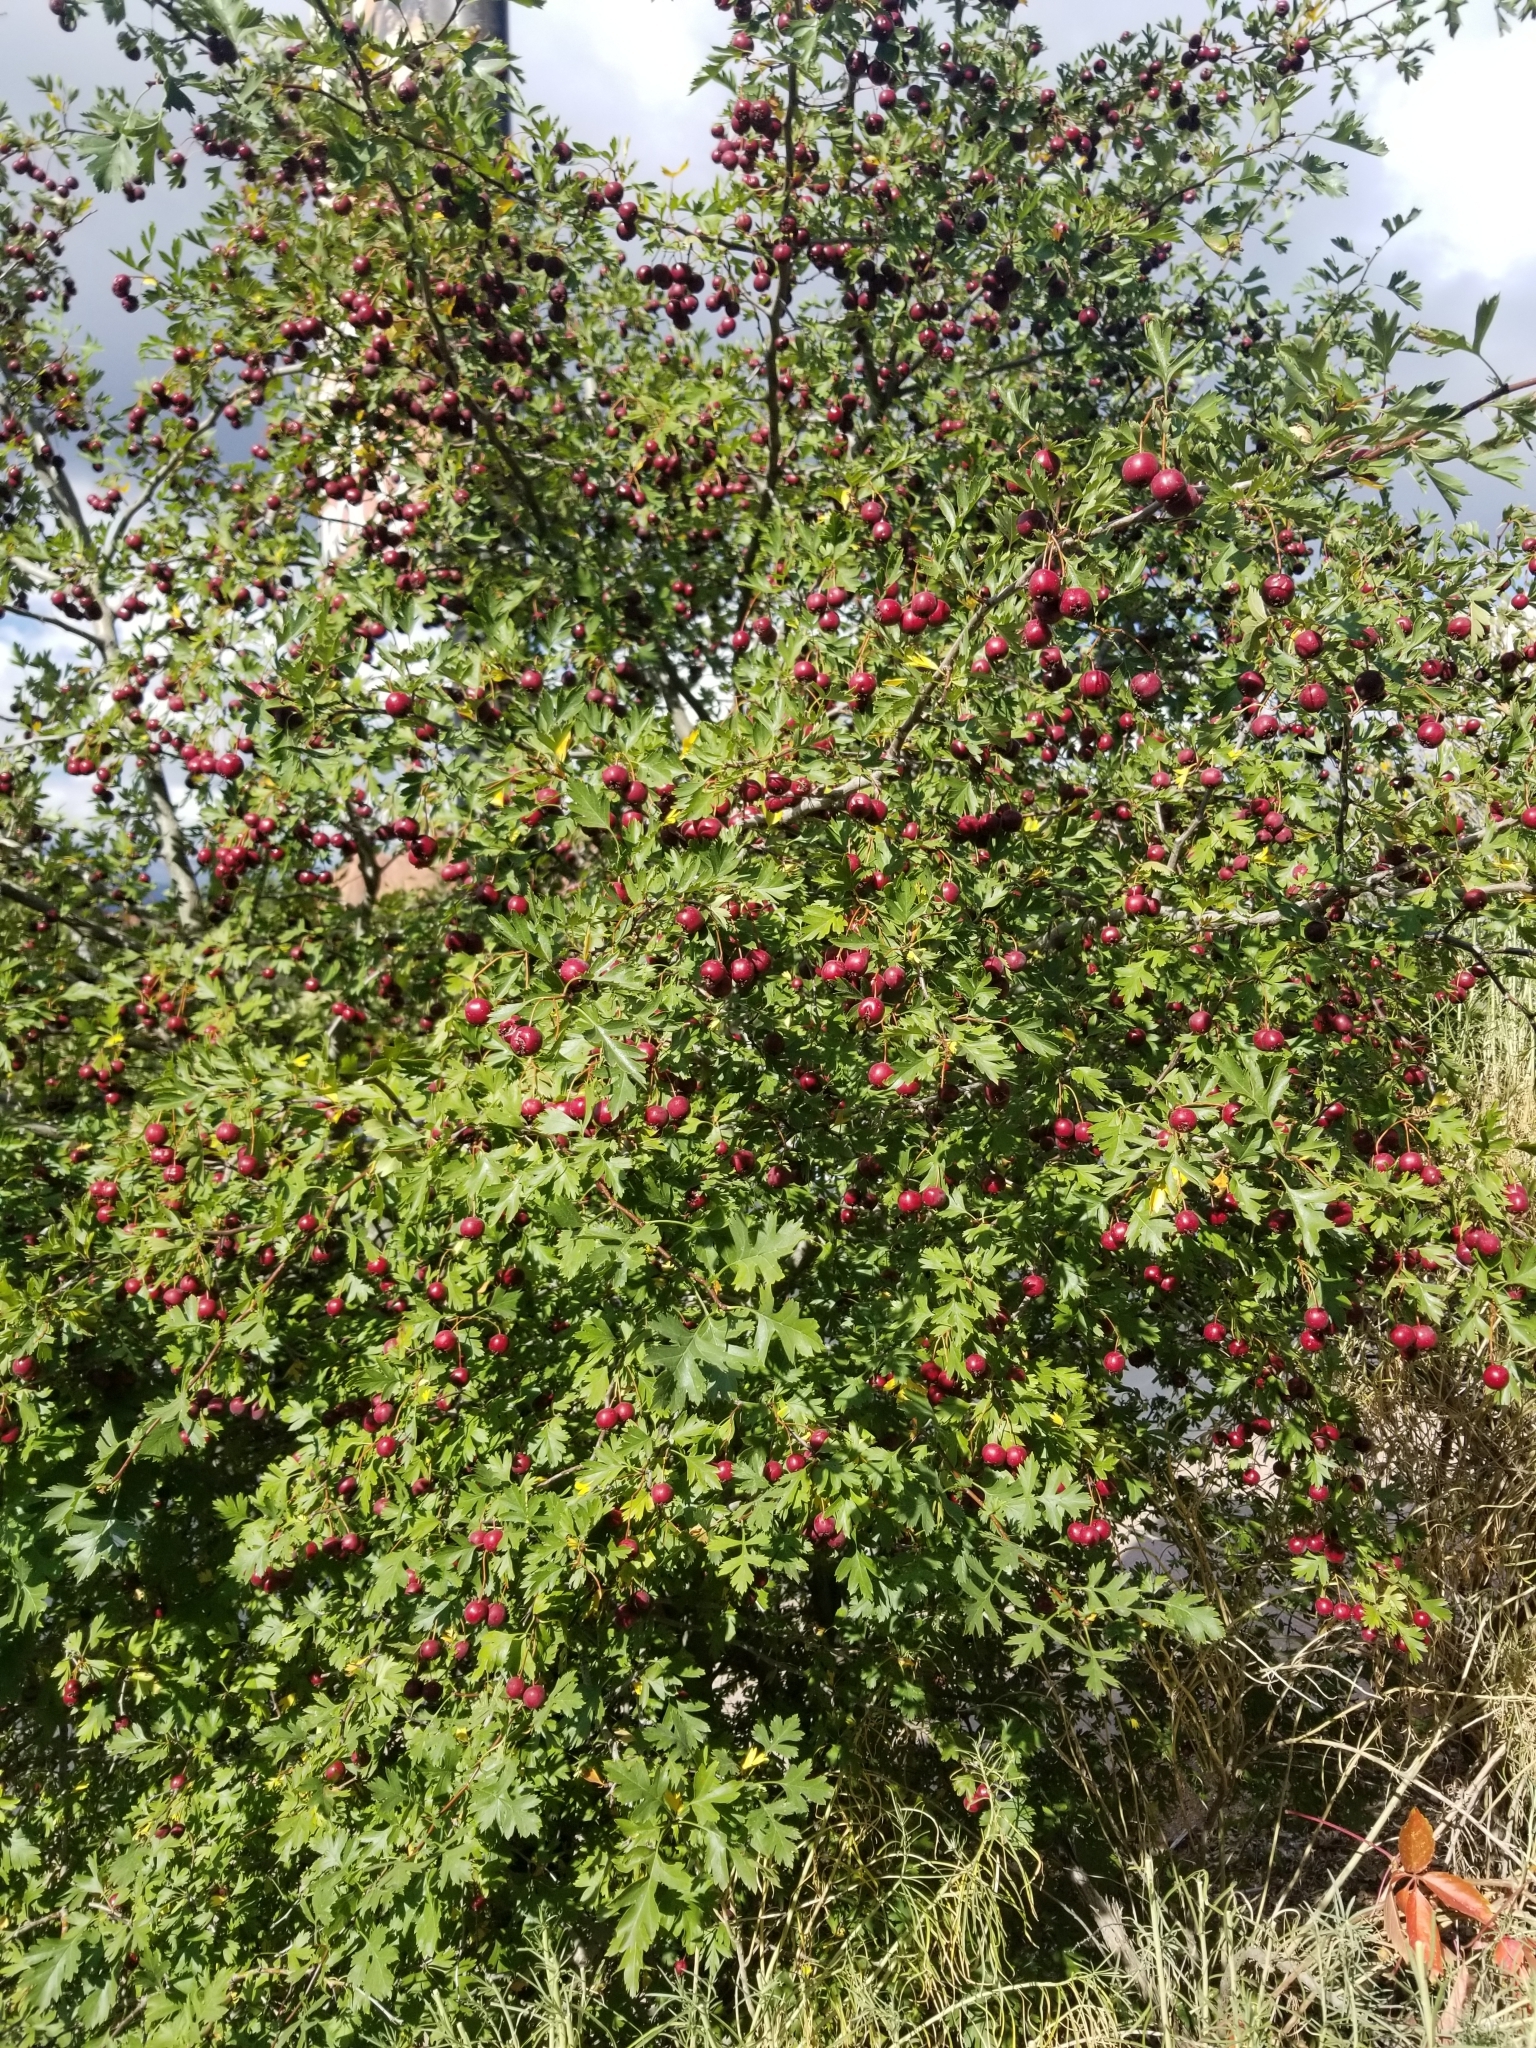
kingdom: Plantae
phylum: Tracheophyta
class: Magnoliopsida
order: Rosales
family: Rosaceae
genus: Crataegus
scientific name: Crataegus marshallii
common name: Parsley-hawthorn
